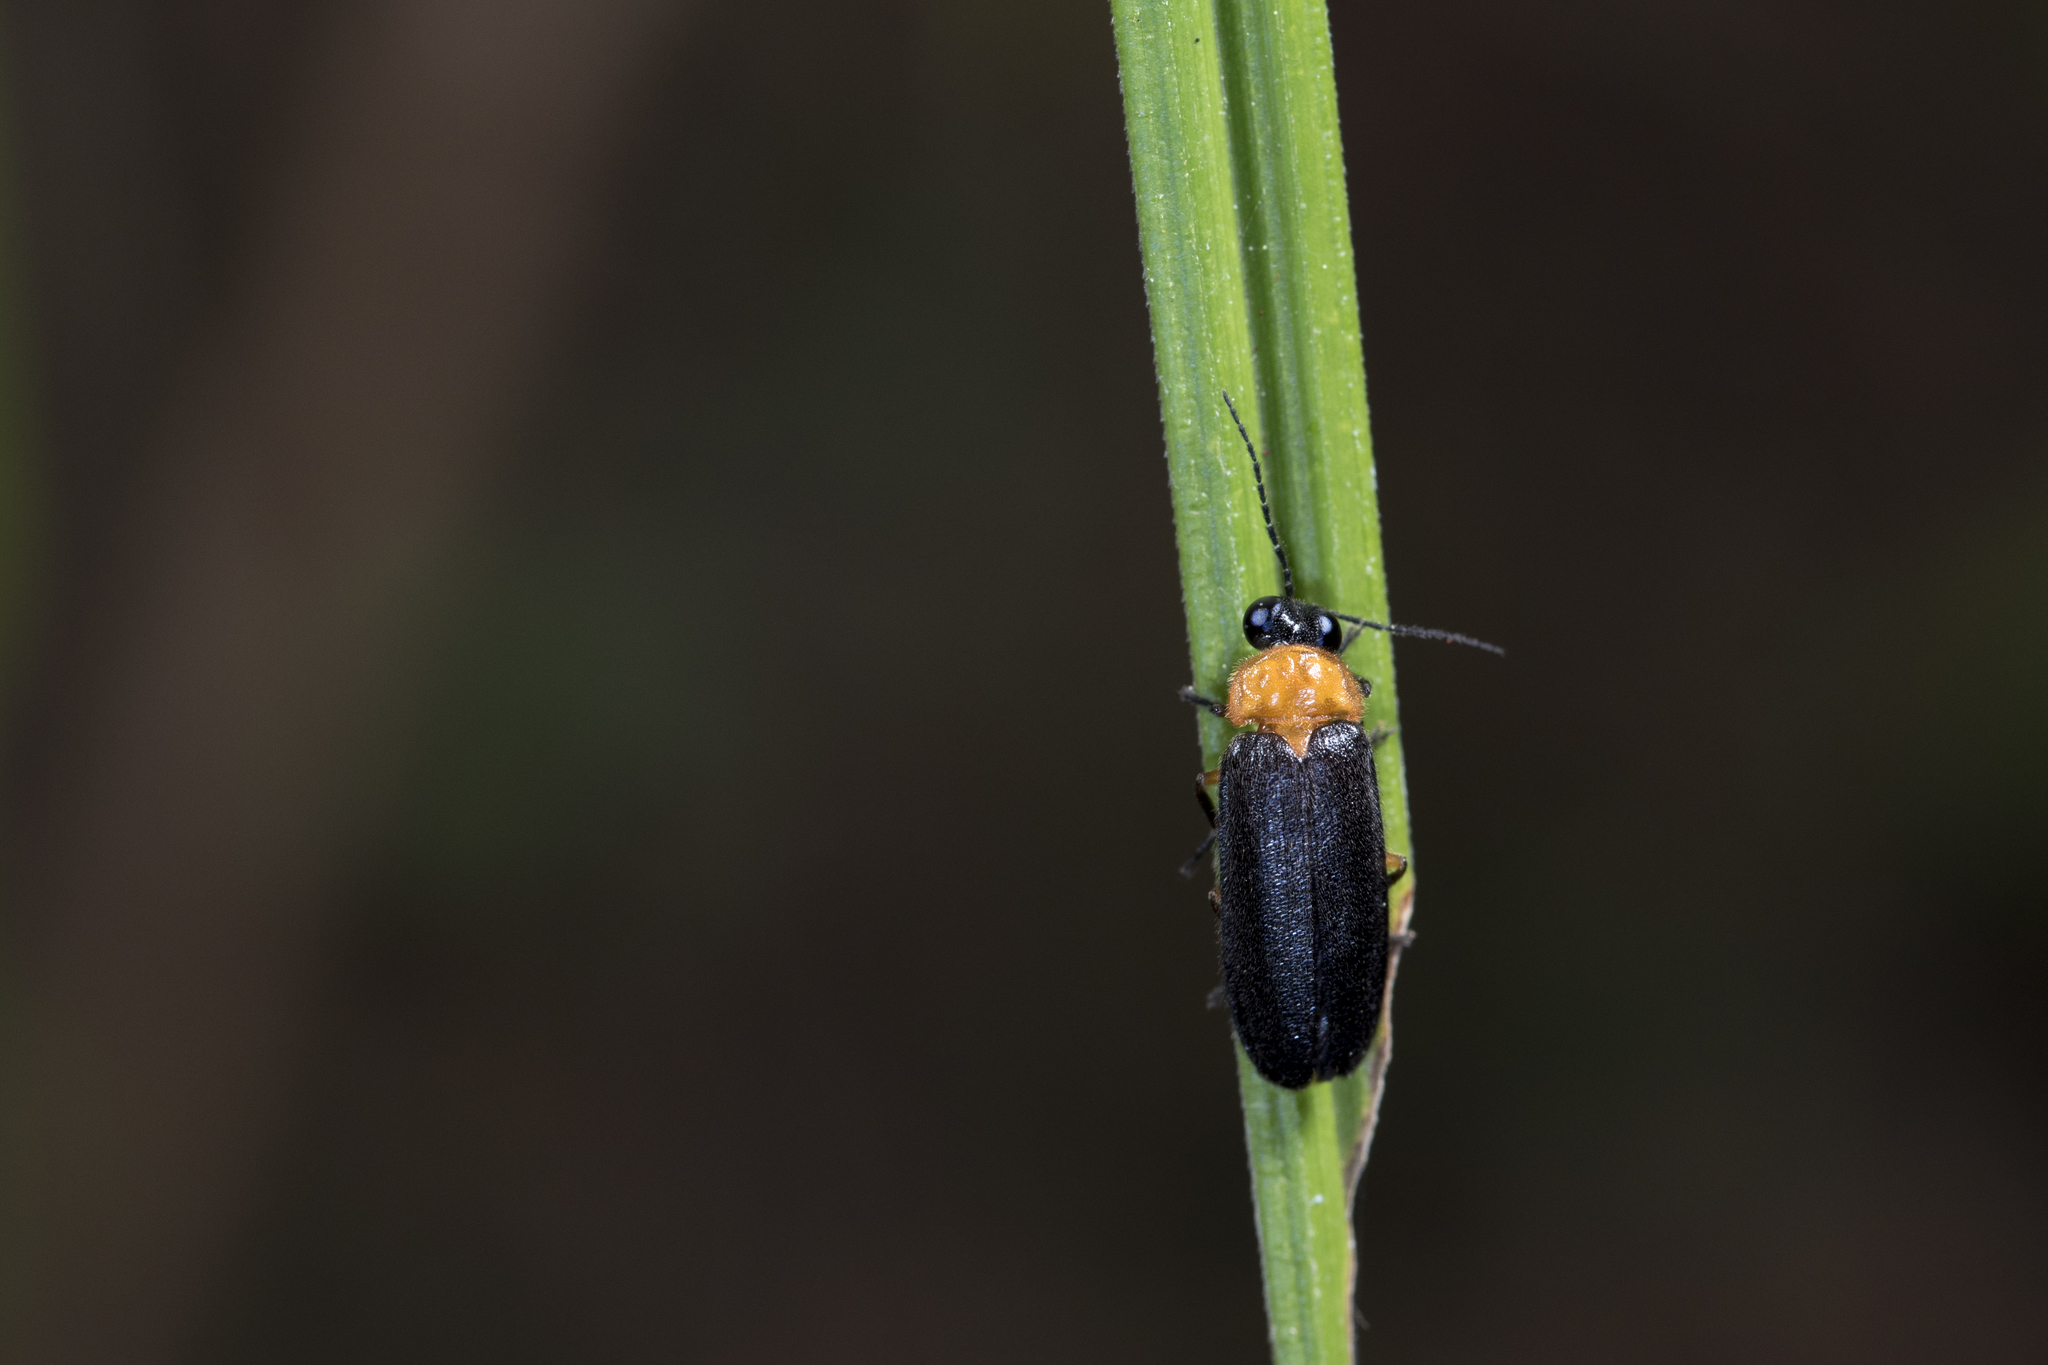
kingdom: Animalia
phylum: Arthropoda
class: Insecta
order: Coleoptera
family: Lampyridae
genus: Abscondita
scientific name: Abscondita cerata
